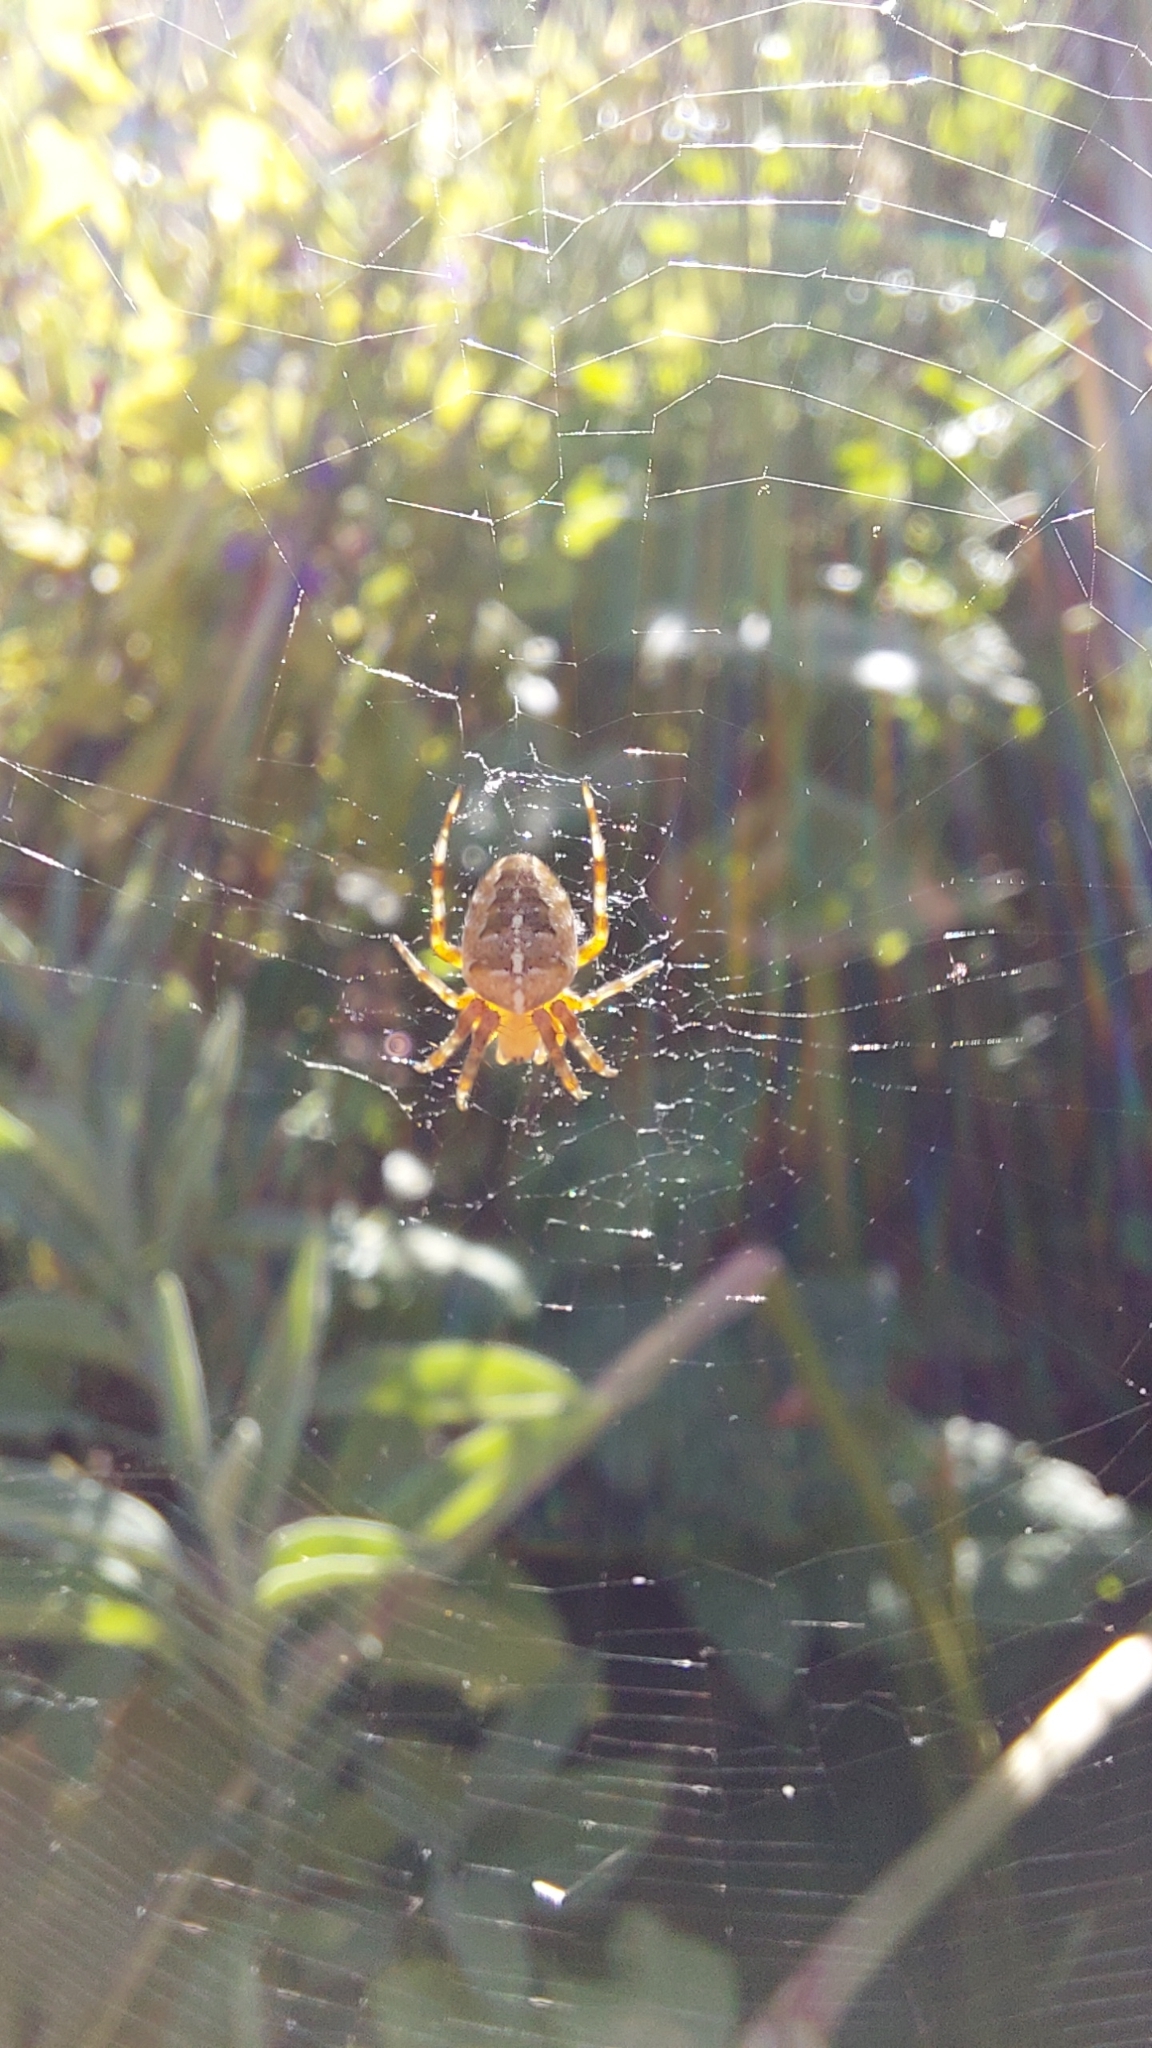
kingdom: Animalia
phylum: Arthropoda
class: Arachnida
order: Araneae
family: Araneidae
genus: Araneus
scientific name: Araneus diadematus
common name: Cross orbweaver
